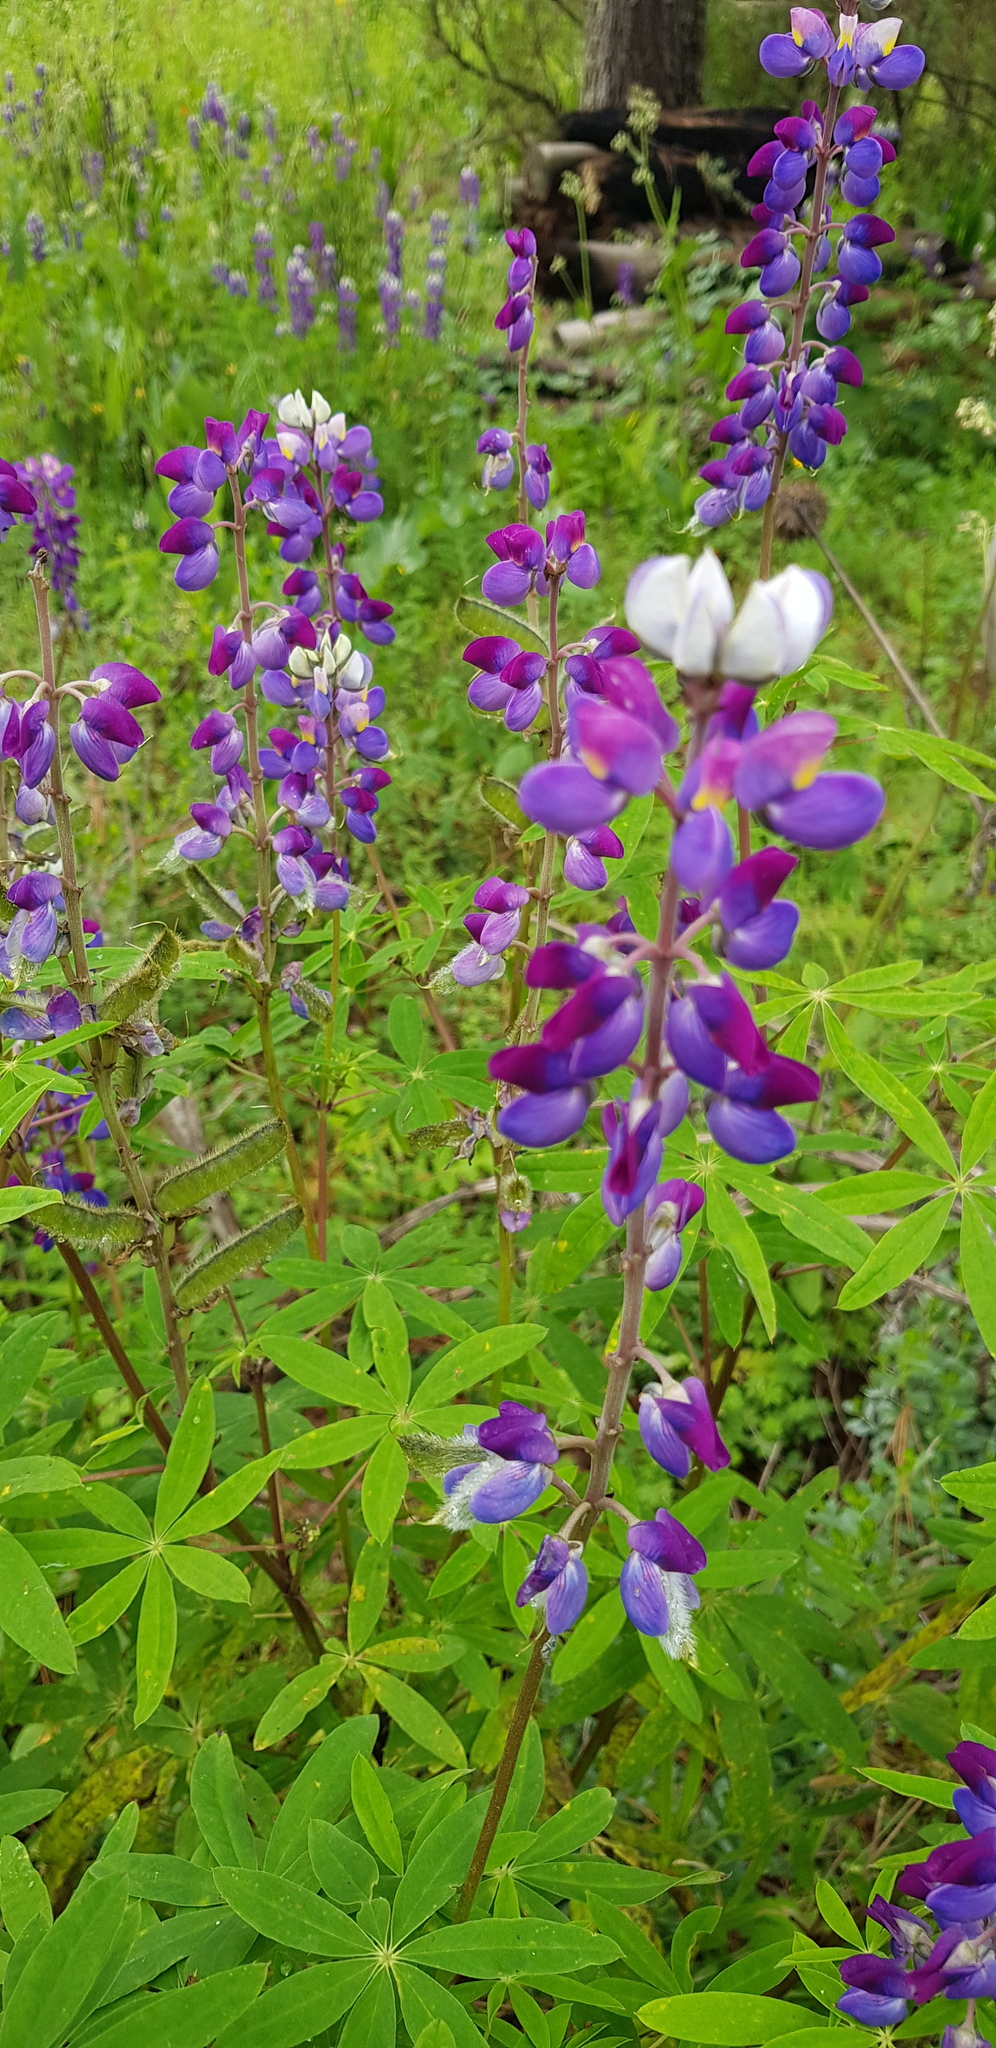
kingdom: Plantae
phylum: Tracheophyta
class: Magnoliopsida
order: Fabales
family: Fabaceae
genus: Lupinus
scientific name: Lupinus montanus
